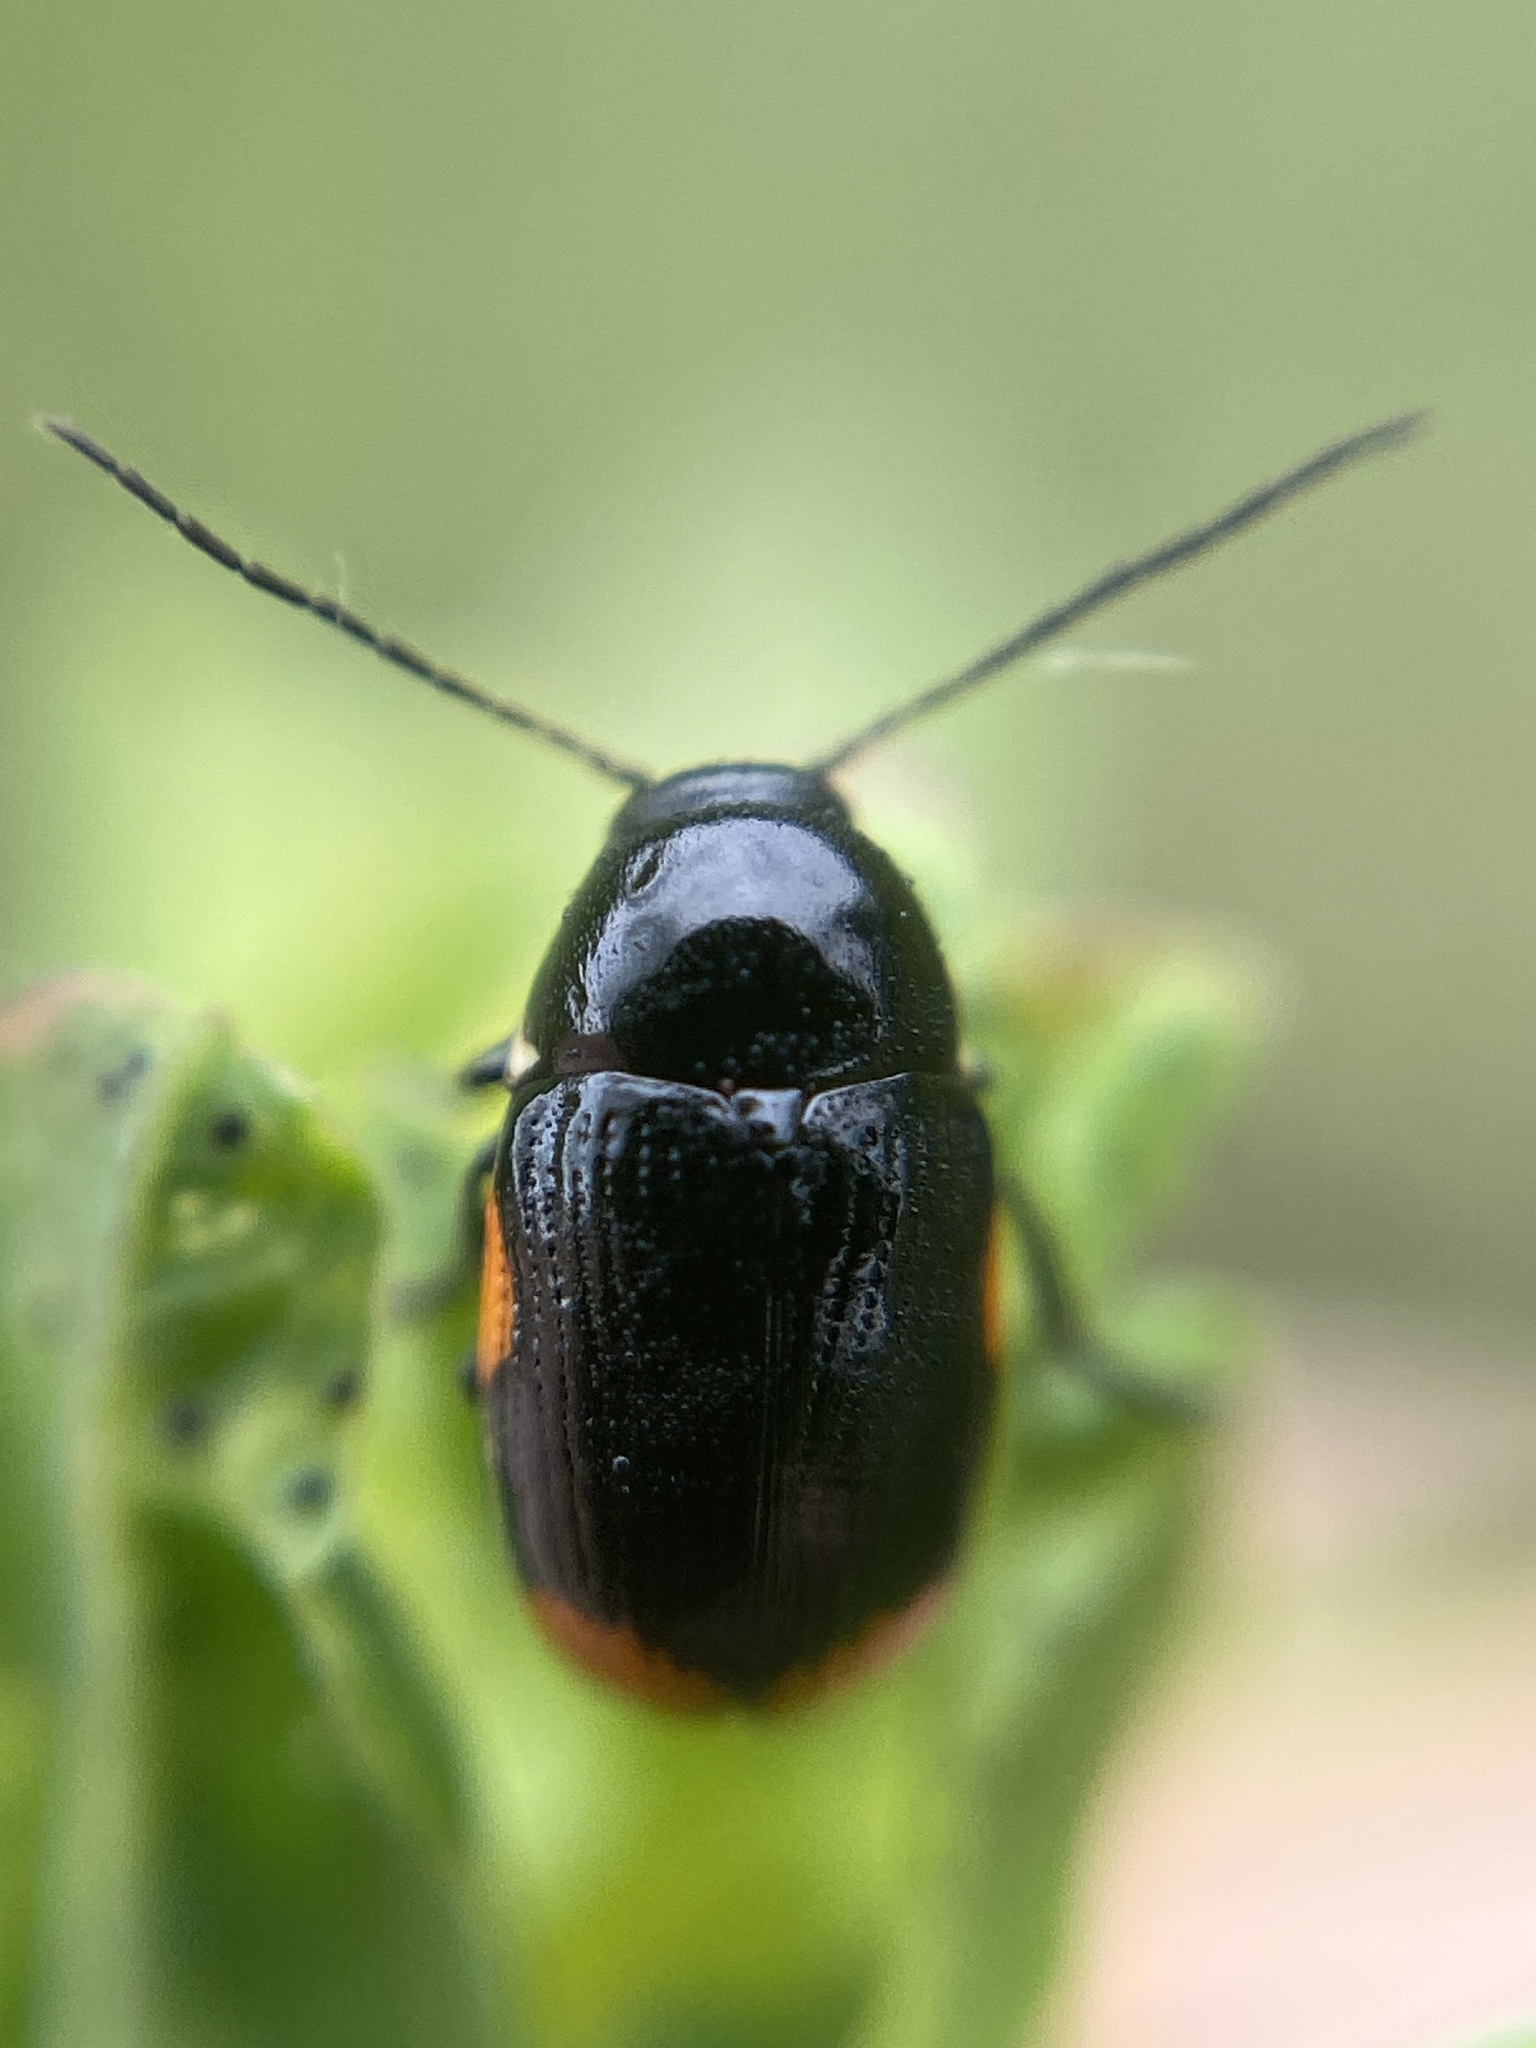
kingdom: Animalia
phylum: Arthropoda
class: Insecta
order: Coleoptera
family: Chrysomelidae
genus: Cryptocephalus
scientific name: Cryptocephalus moraei
